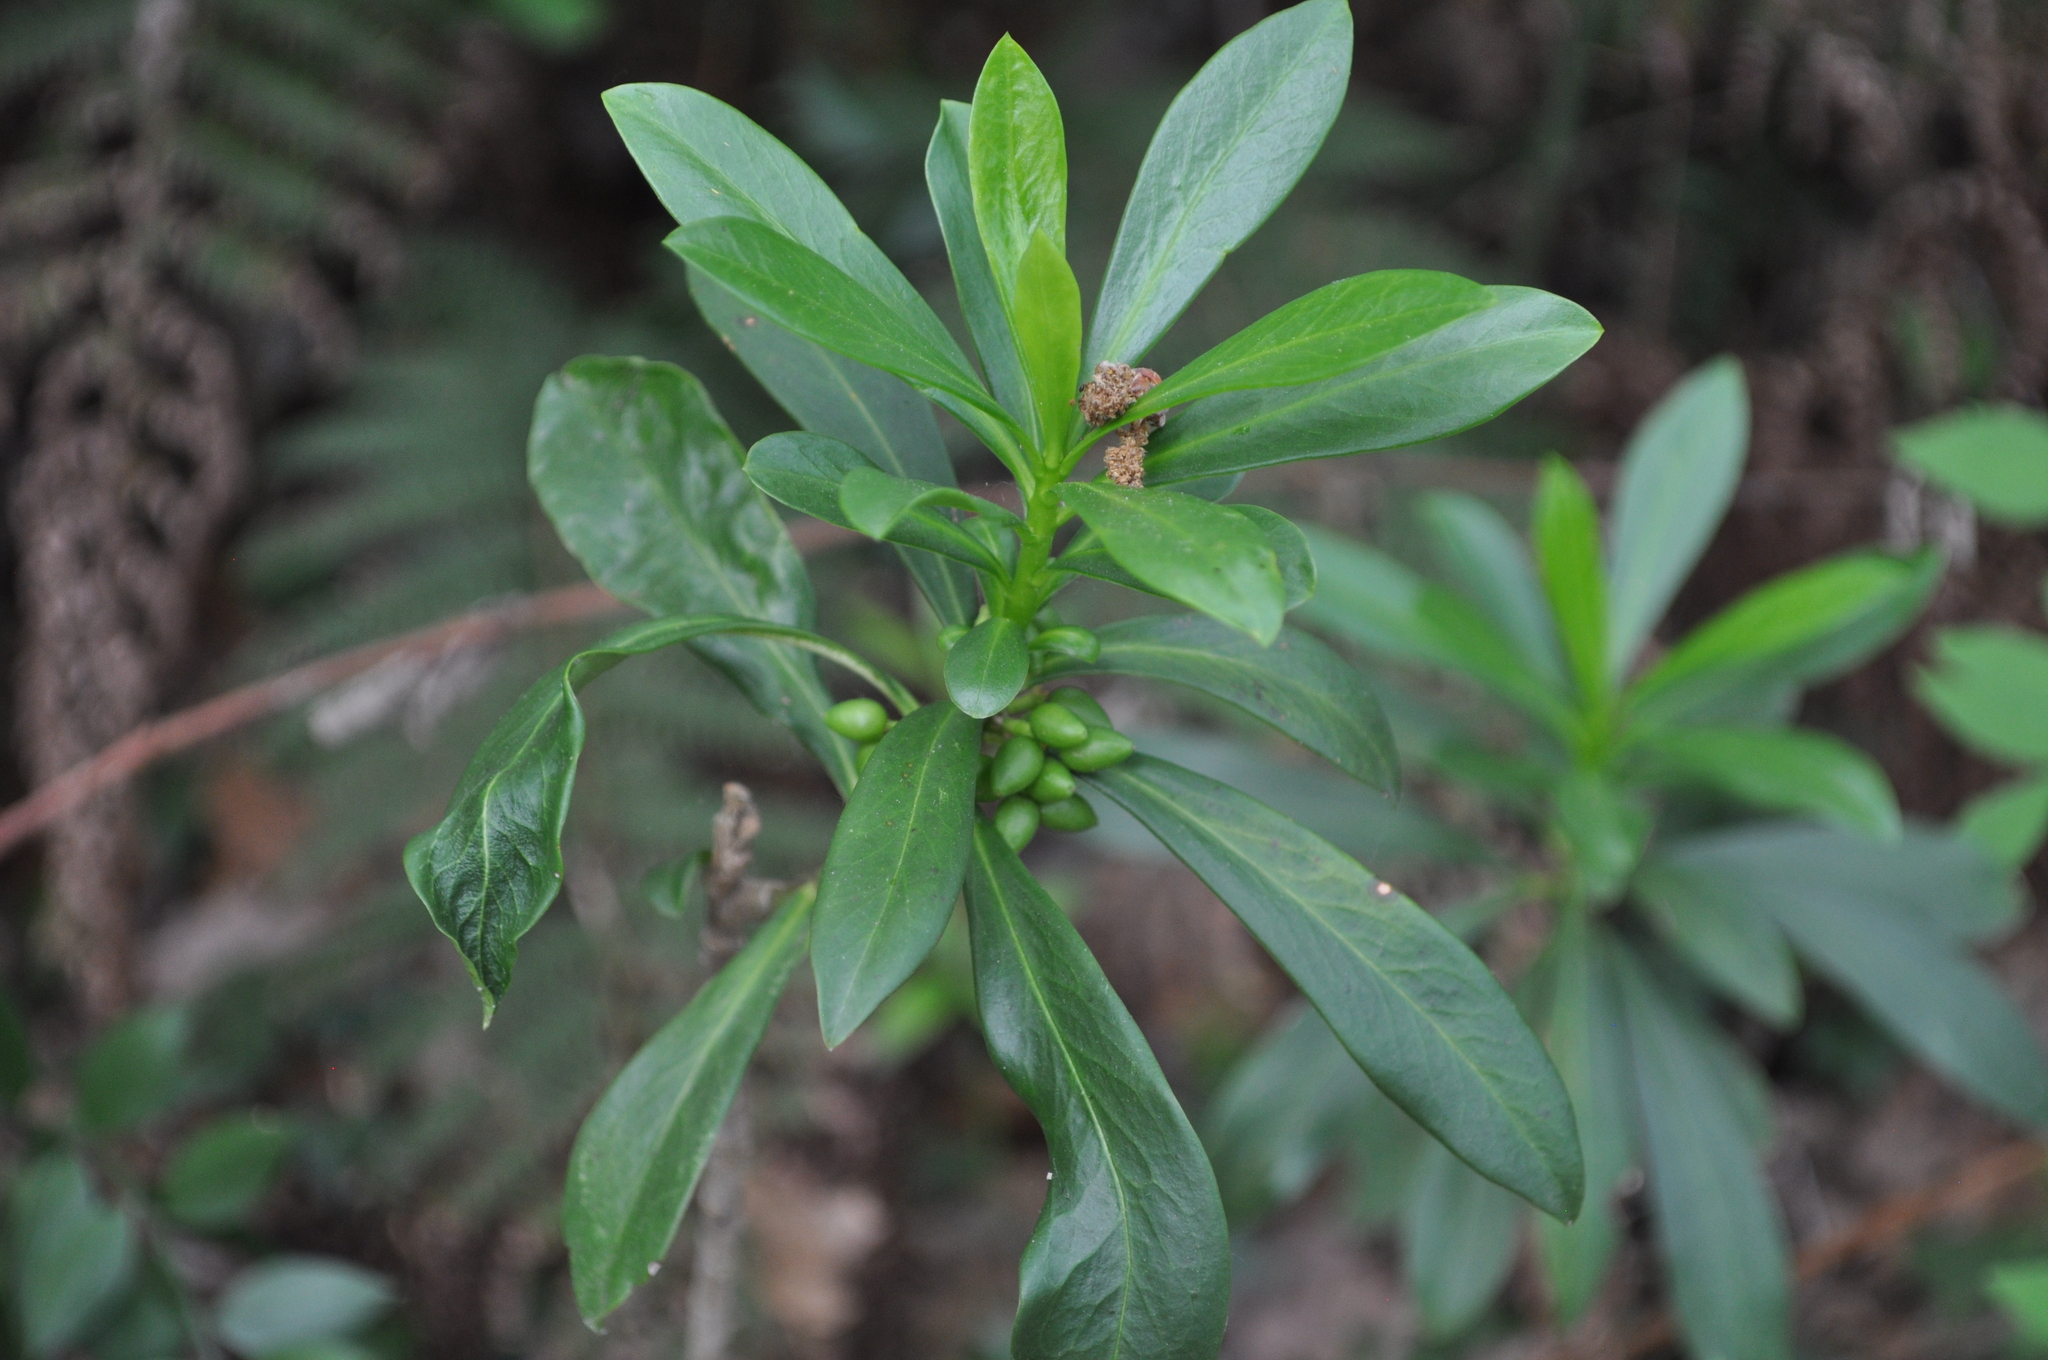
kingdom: Plantae
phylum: Tracheophyta
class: Magnoliopsida
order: Malvales
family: Thymelaeaceae
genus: Daphne
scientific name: Daphne laureola
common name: Spurge-laurel
